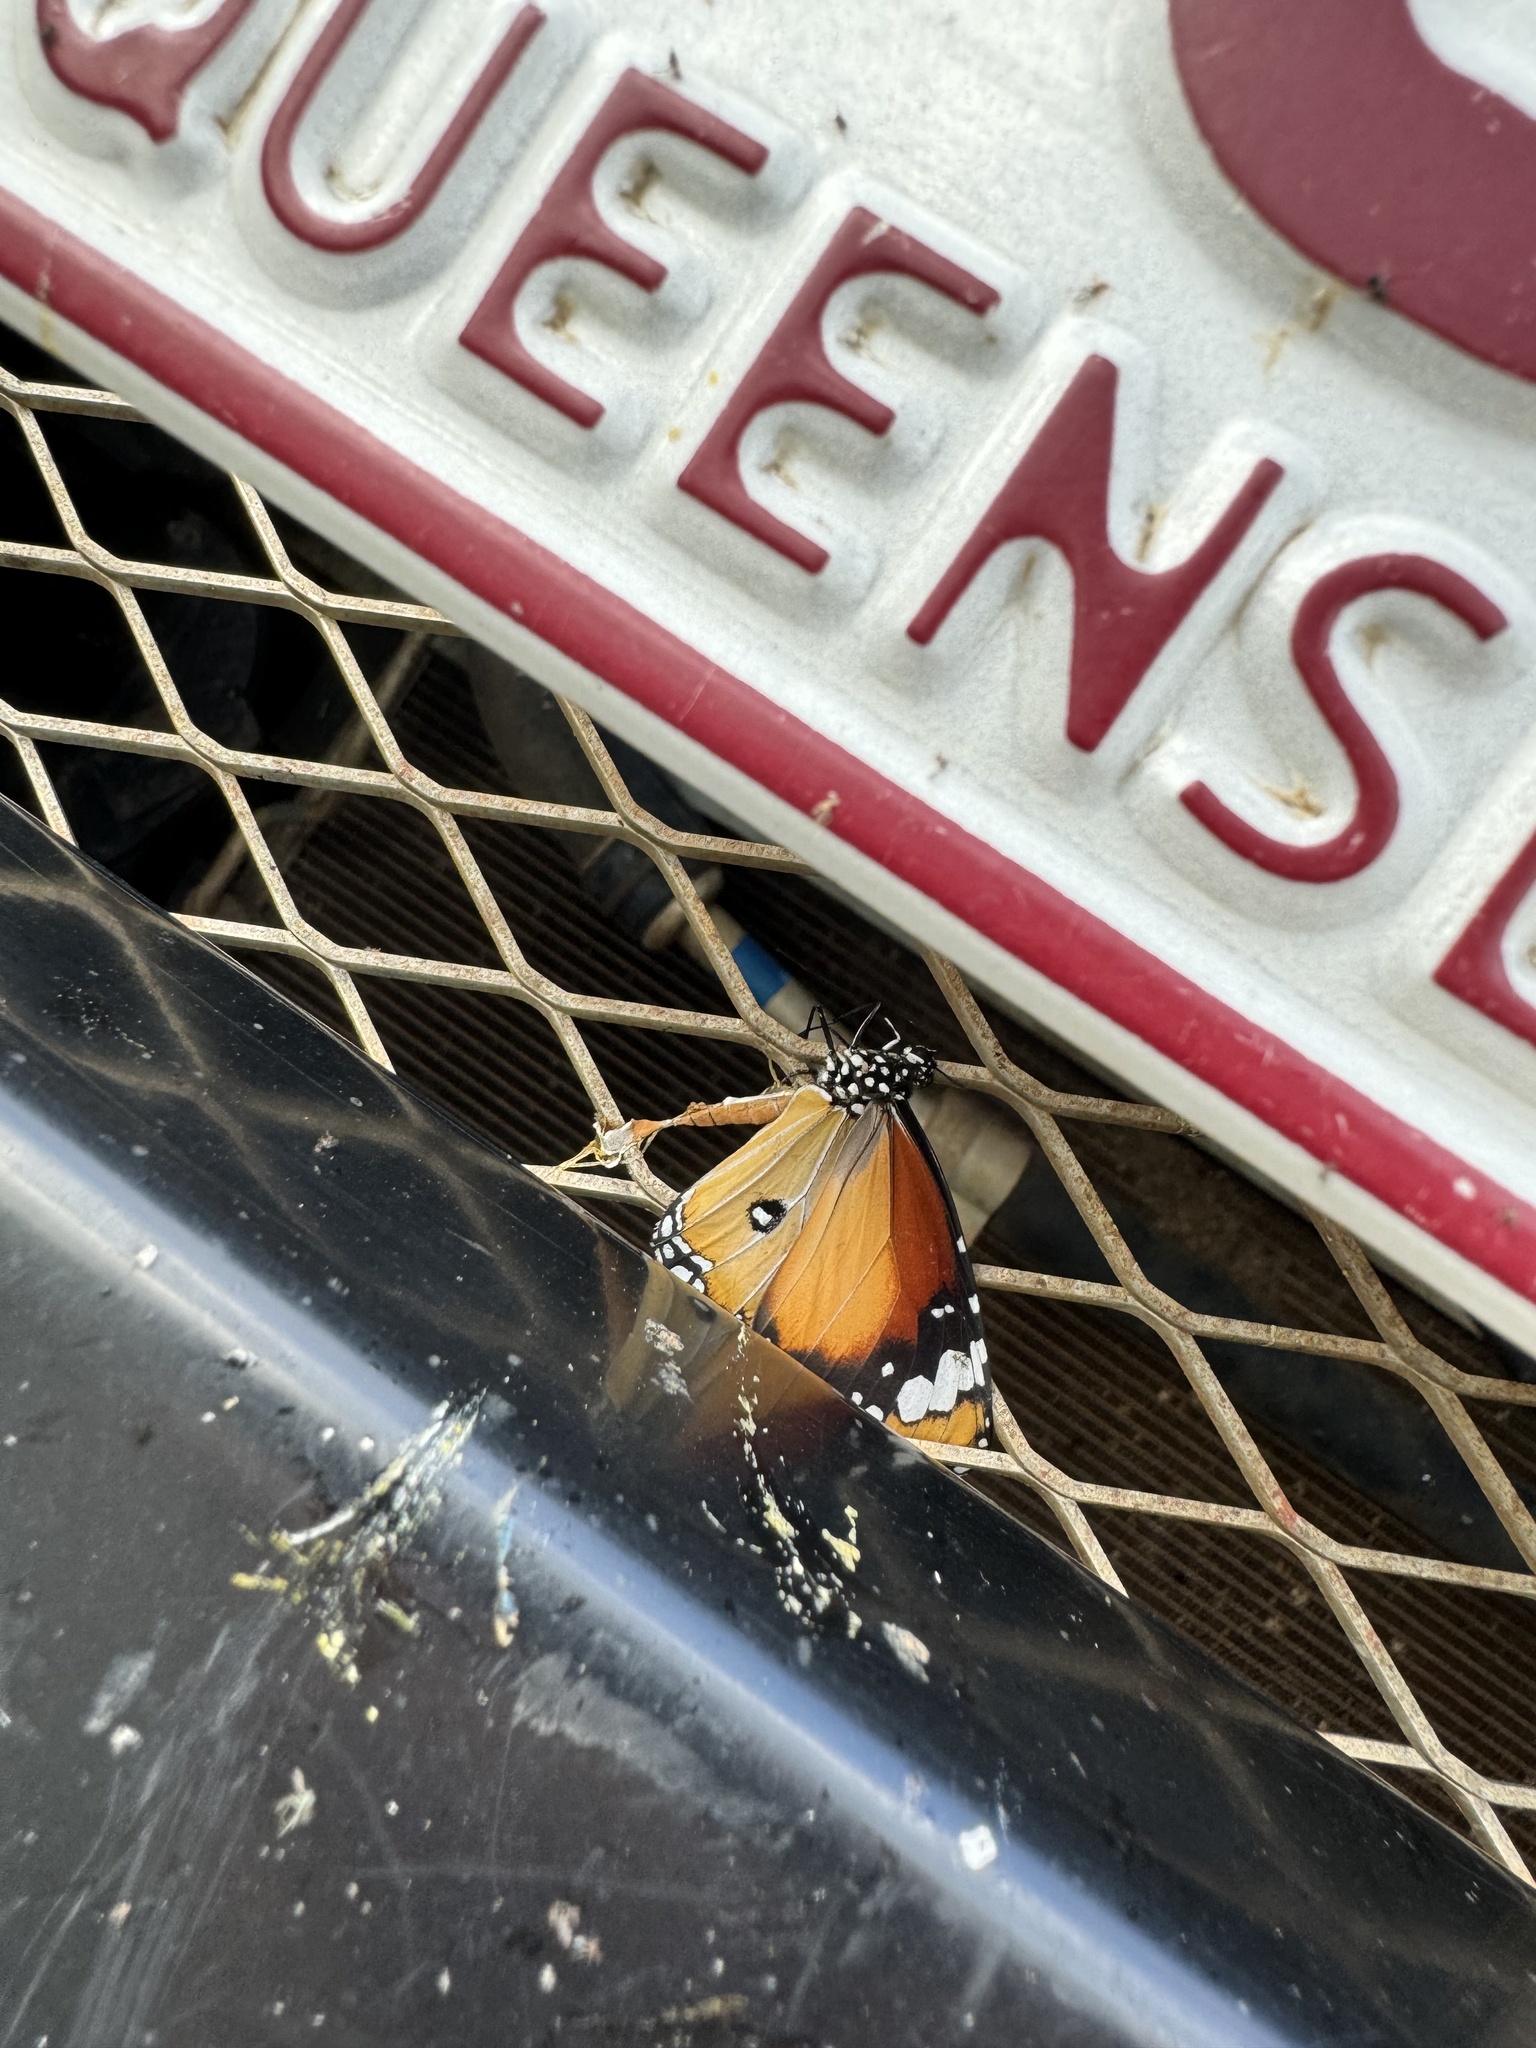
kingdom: Animalia
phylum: Arthropoda
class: Insecta
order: Lepidoptera
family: Nymphalidae
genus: Danaus
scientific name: Danaus chrysippus
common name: Plain tiger
